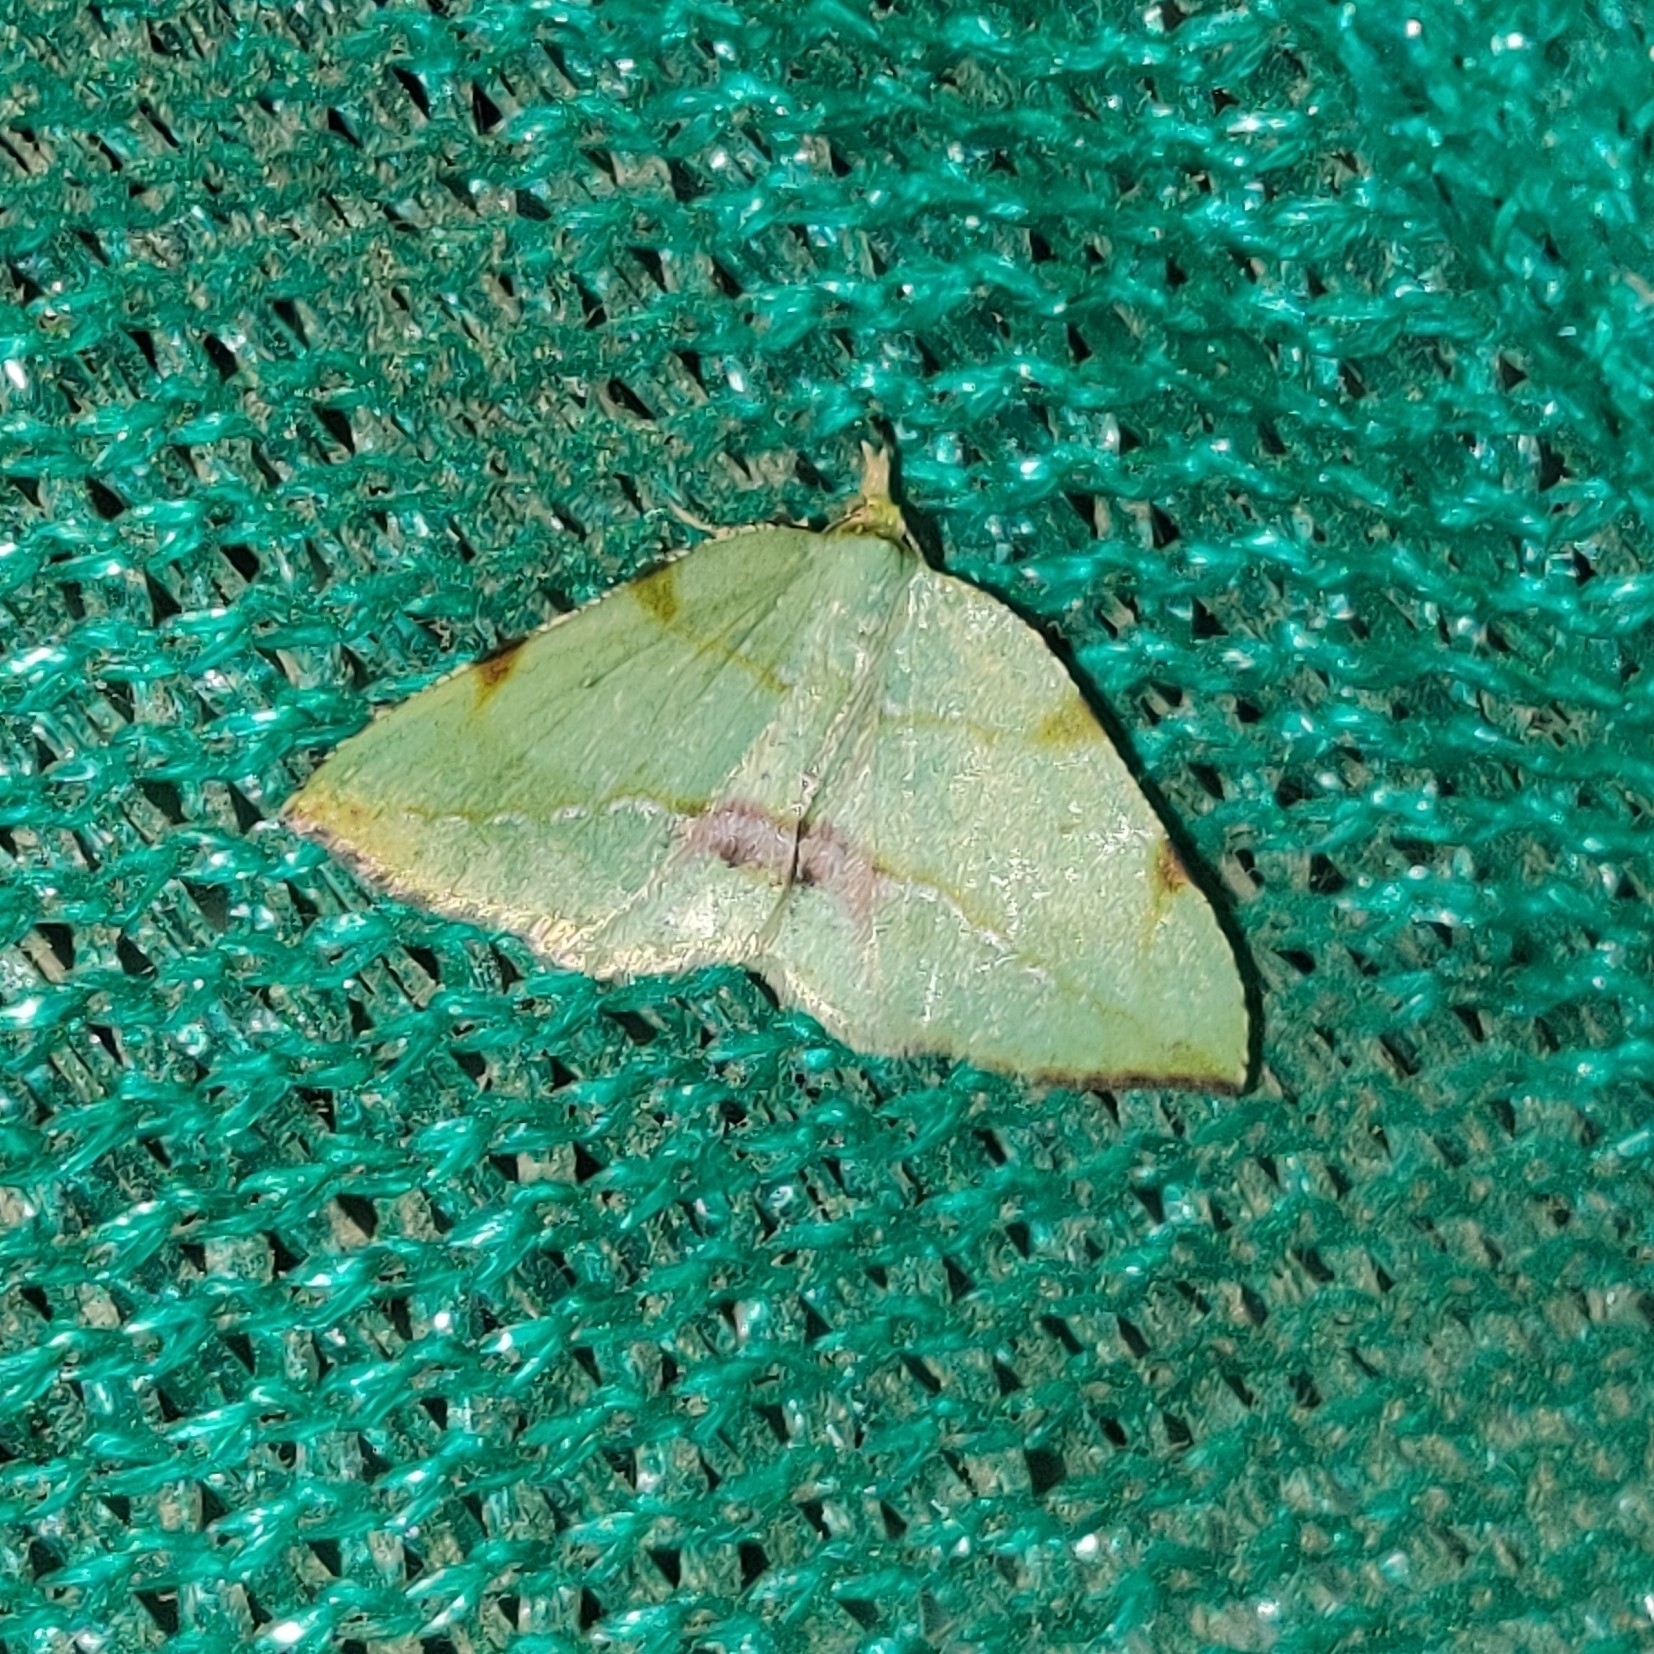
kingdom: Animalia
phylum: Arthropoda
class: Insecta
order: Lepidoptera
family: Geometridae
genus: Apoheterolocha
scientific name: Apoheterolocha patalata
